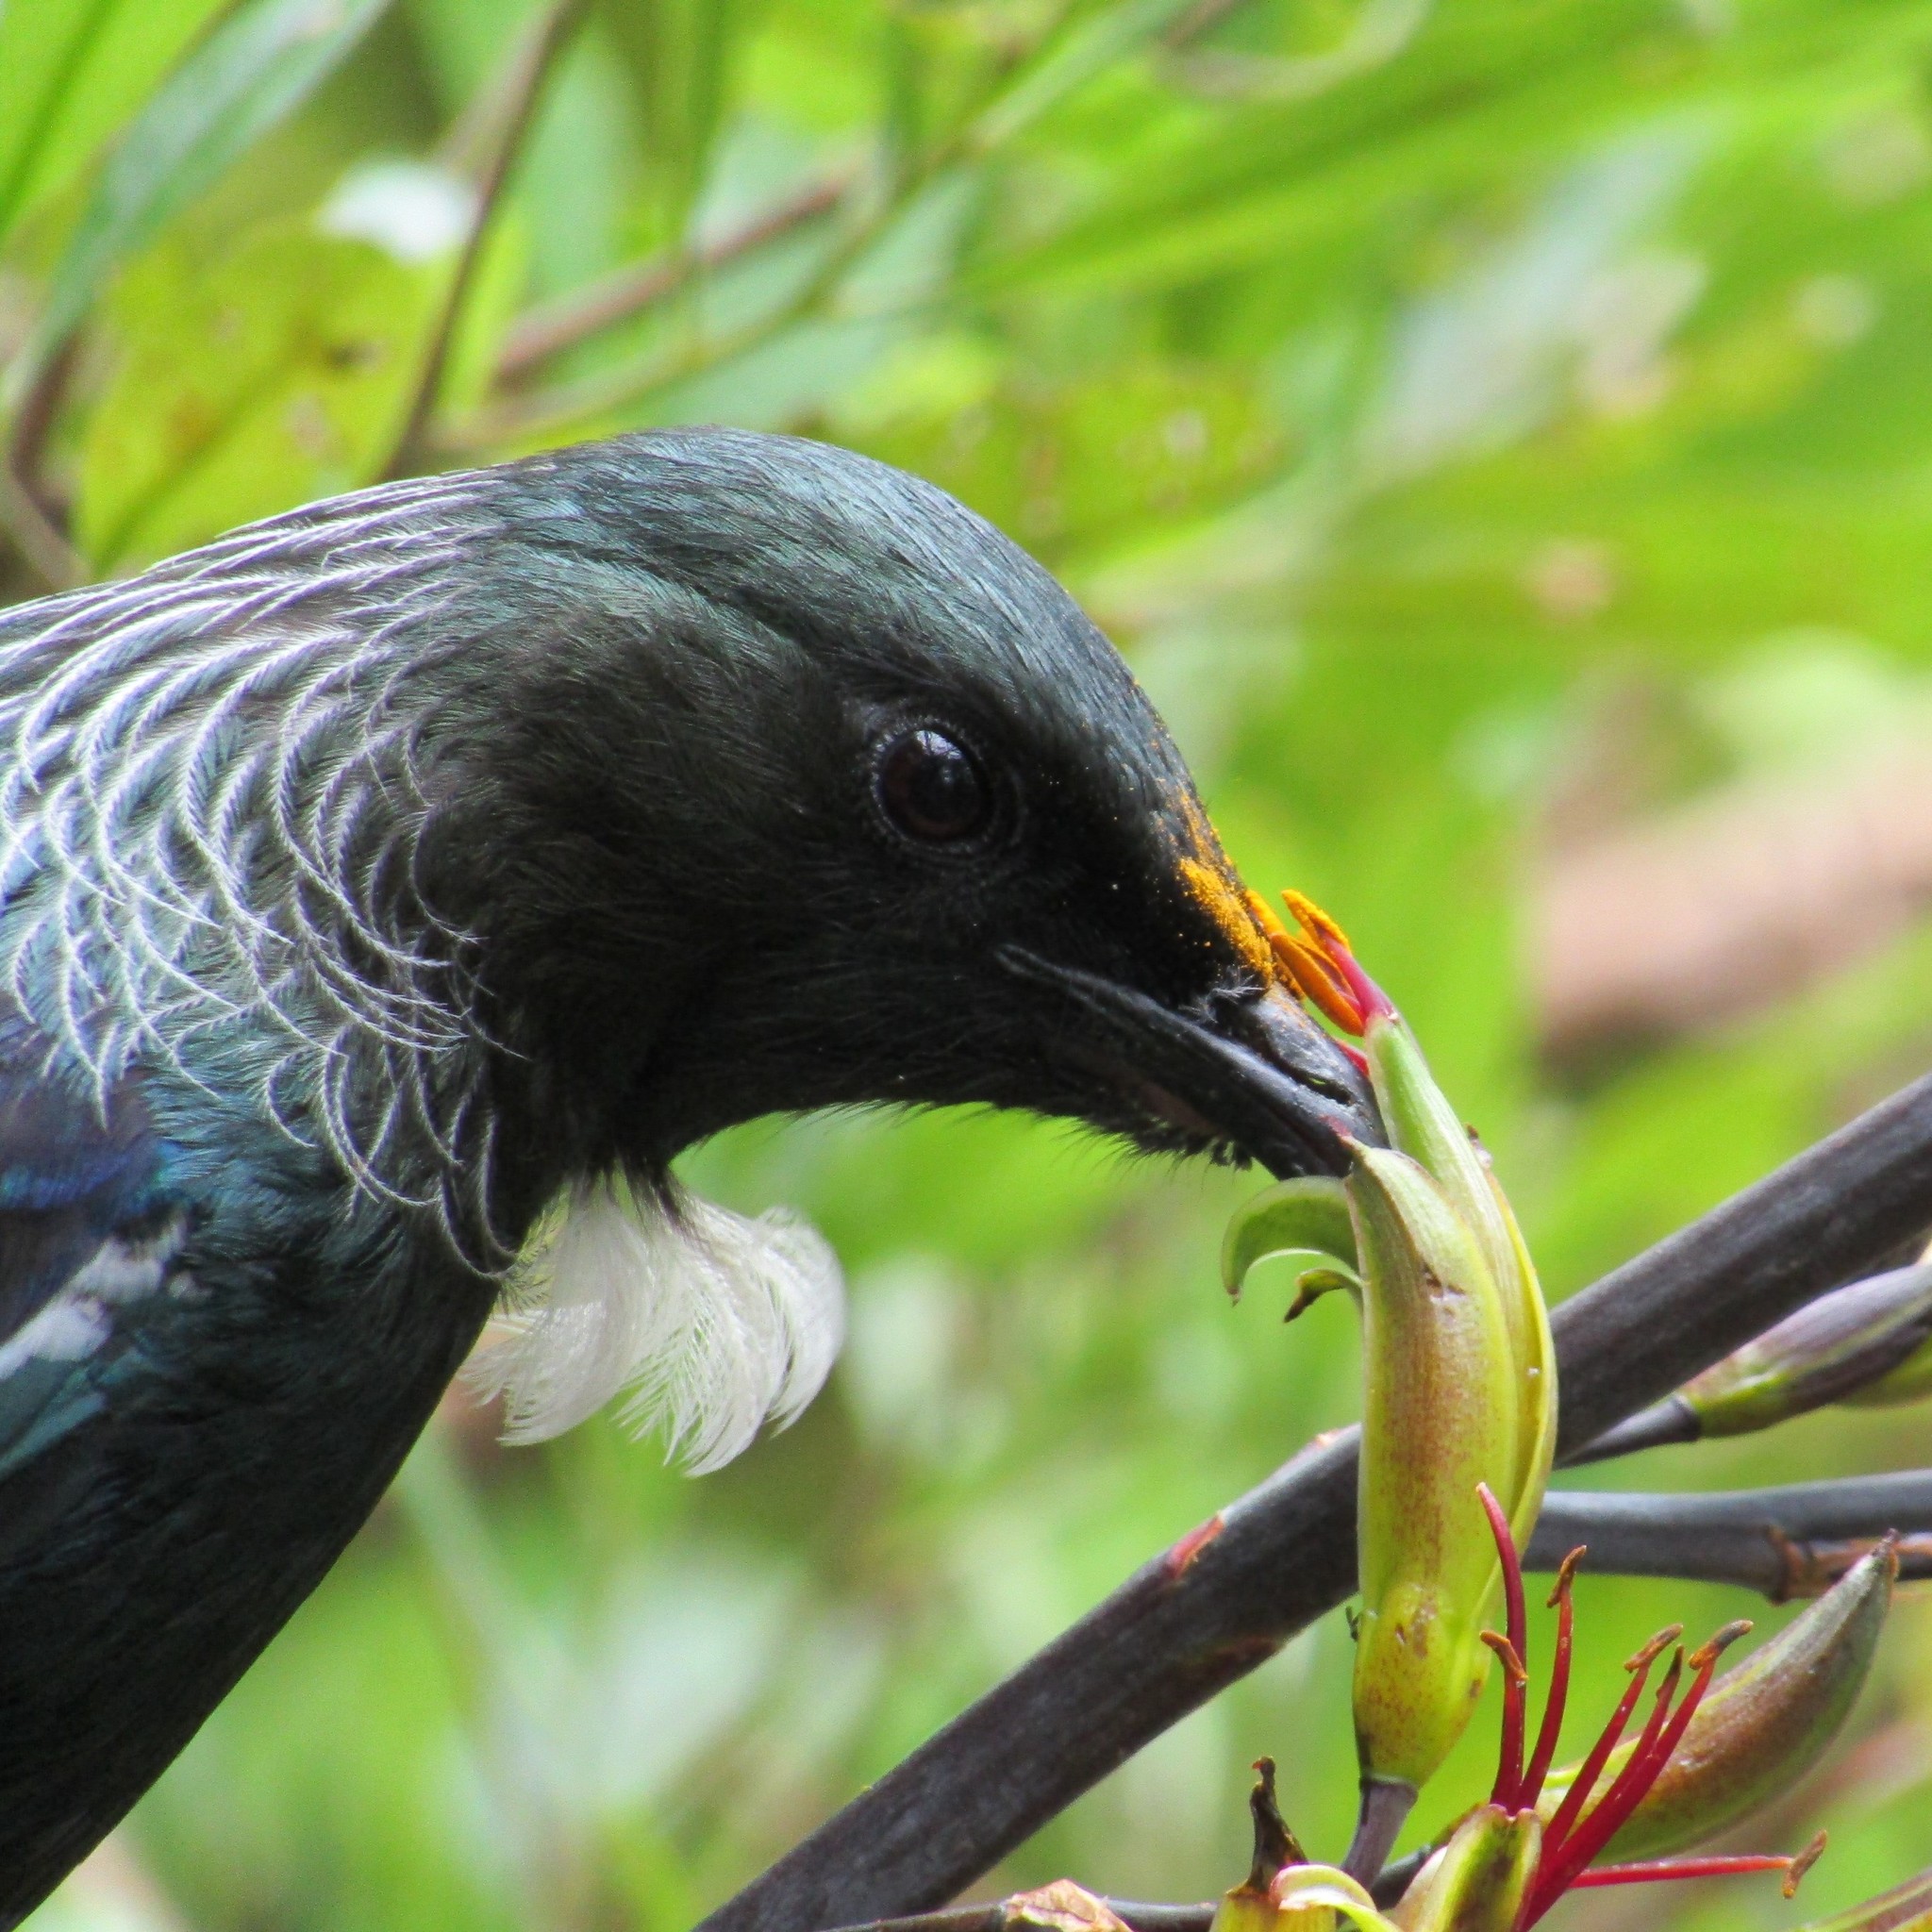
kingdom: Animalia
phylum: Chordata
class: Aves
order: Passeriformes
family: Meliphagidae
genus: Prosthemadera
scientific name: Prosthemadera novaeseelandiae
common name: Tui
